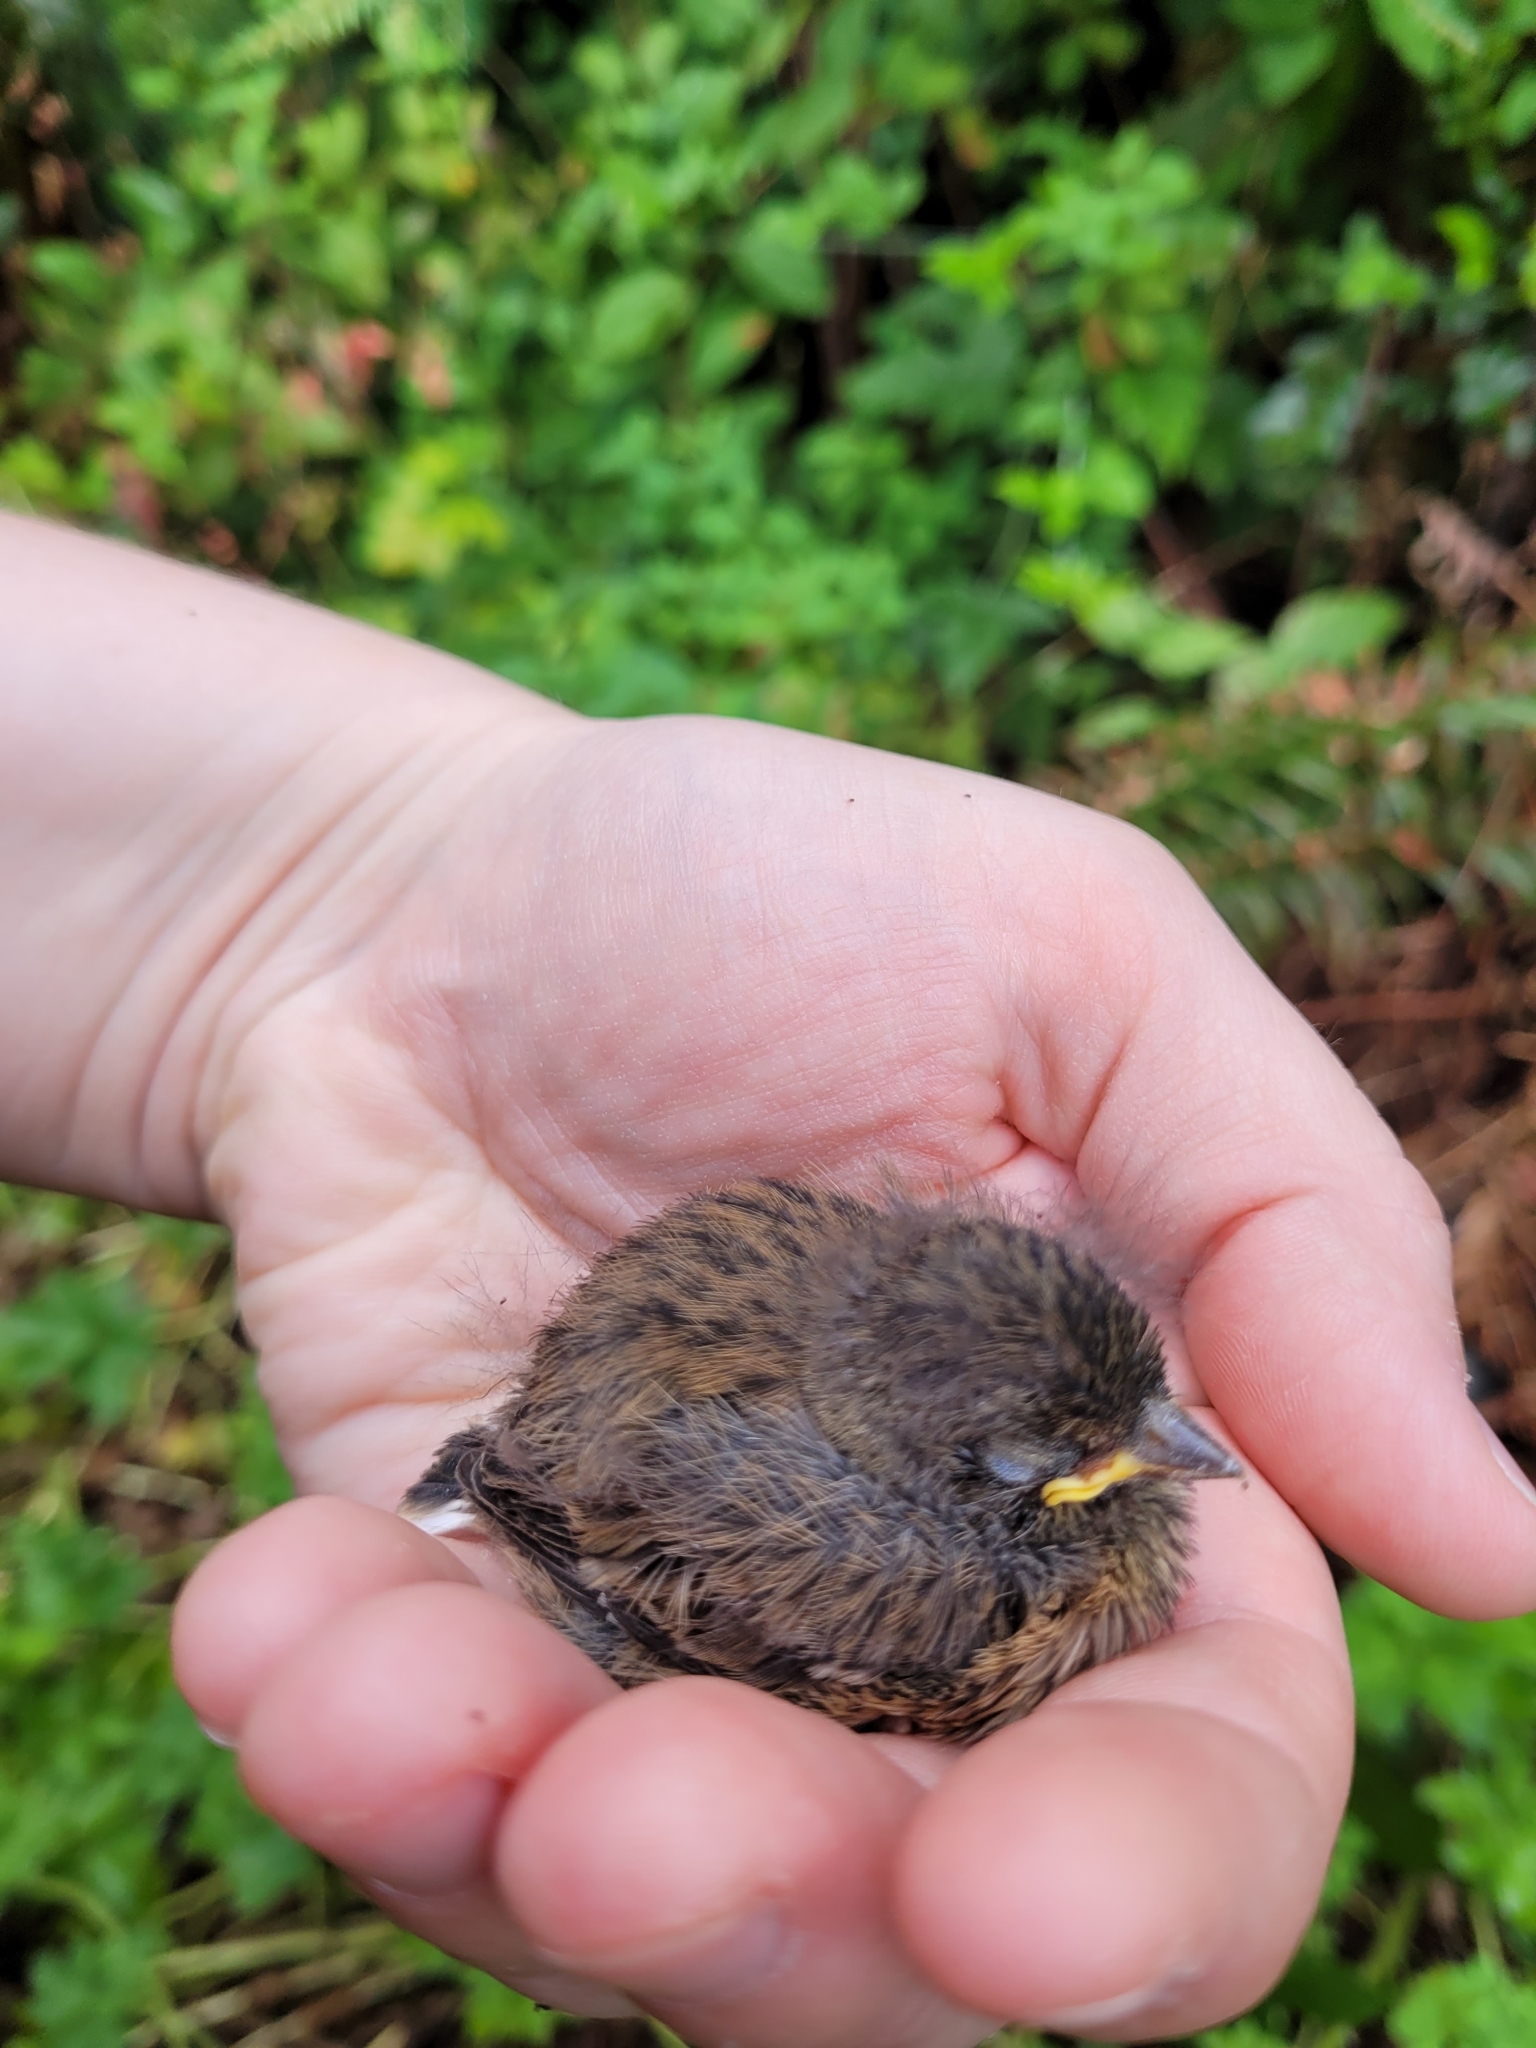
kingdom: Animalia
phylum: Chordata
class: Aves
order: Passeriformes
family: Passerellidae
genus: Junco
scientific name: Junco hyemalis
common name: Dark-eyed junco
